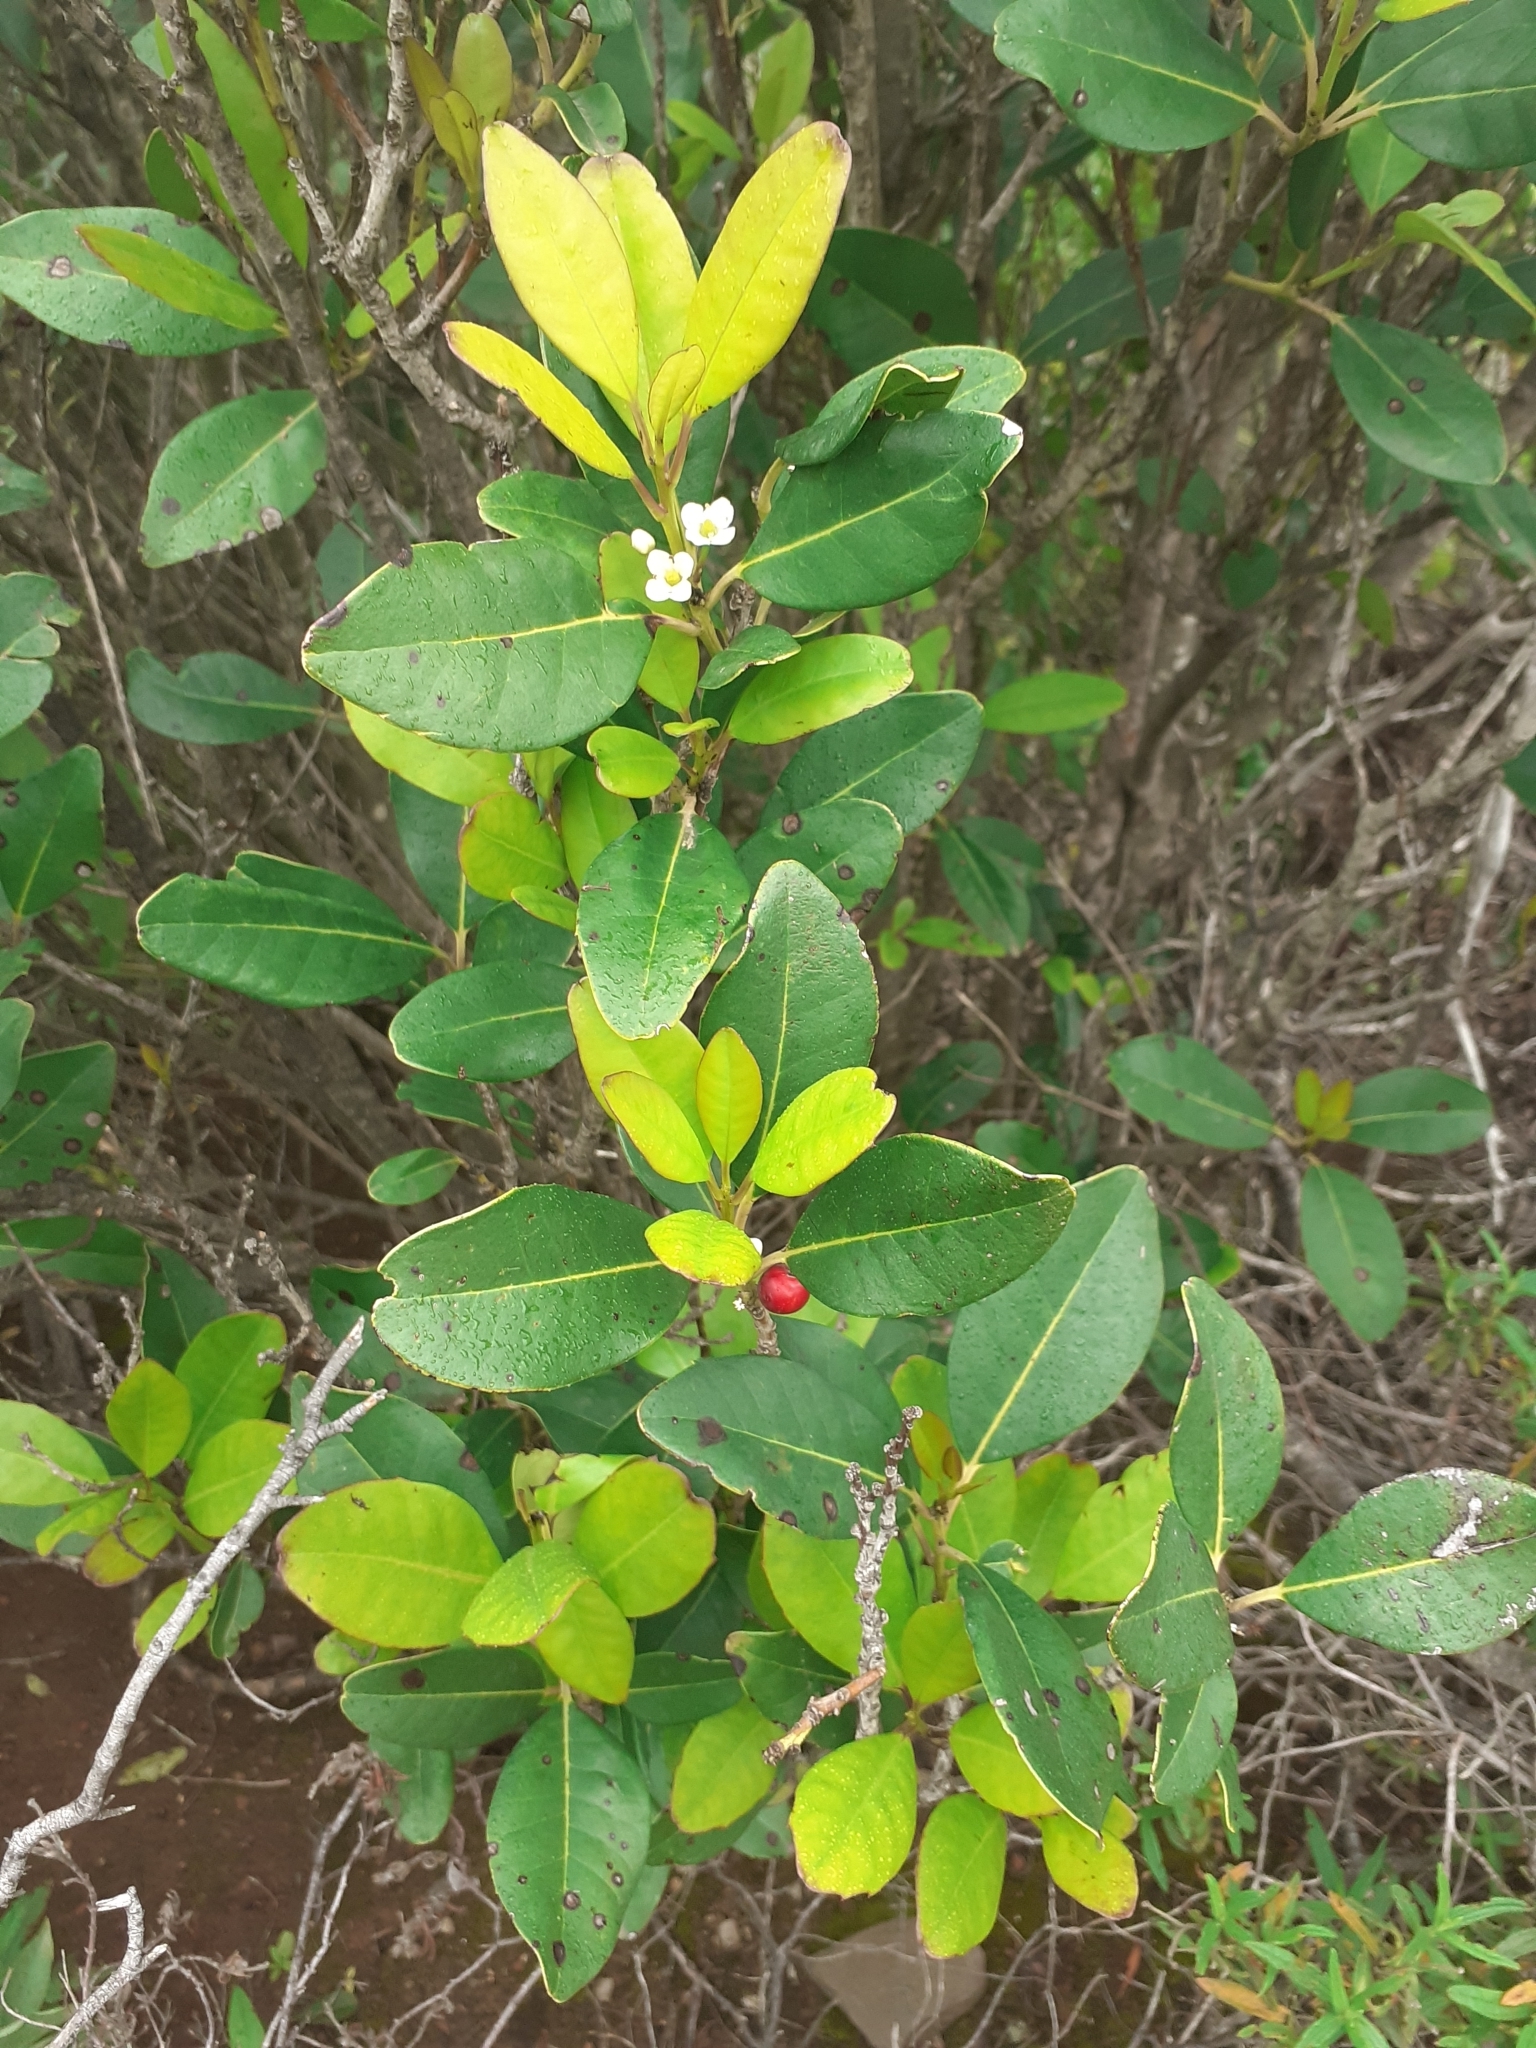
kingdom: Plantae
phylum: Tracheophyta
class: Magnoliopsida
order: Aquifoliales
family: Aquifoliaceae
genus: Ilex
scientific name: Ilex canariensis
